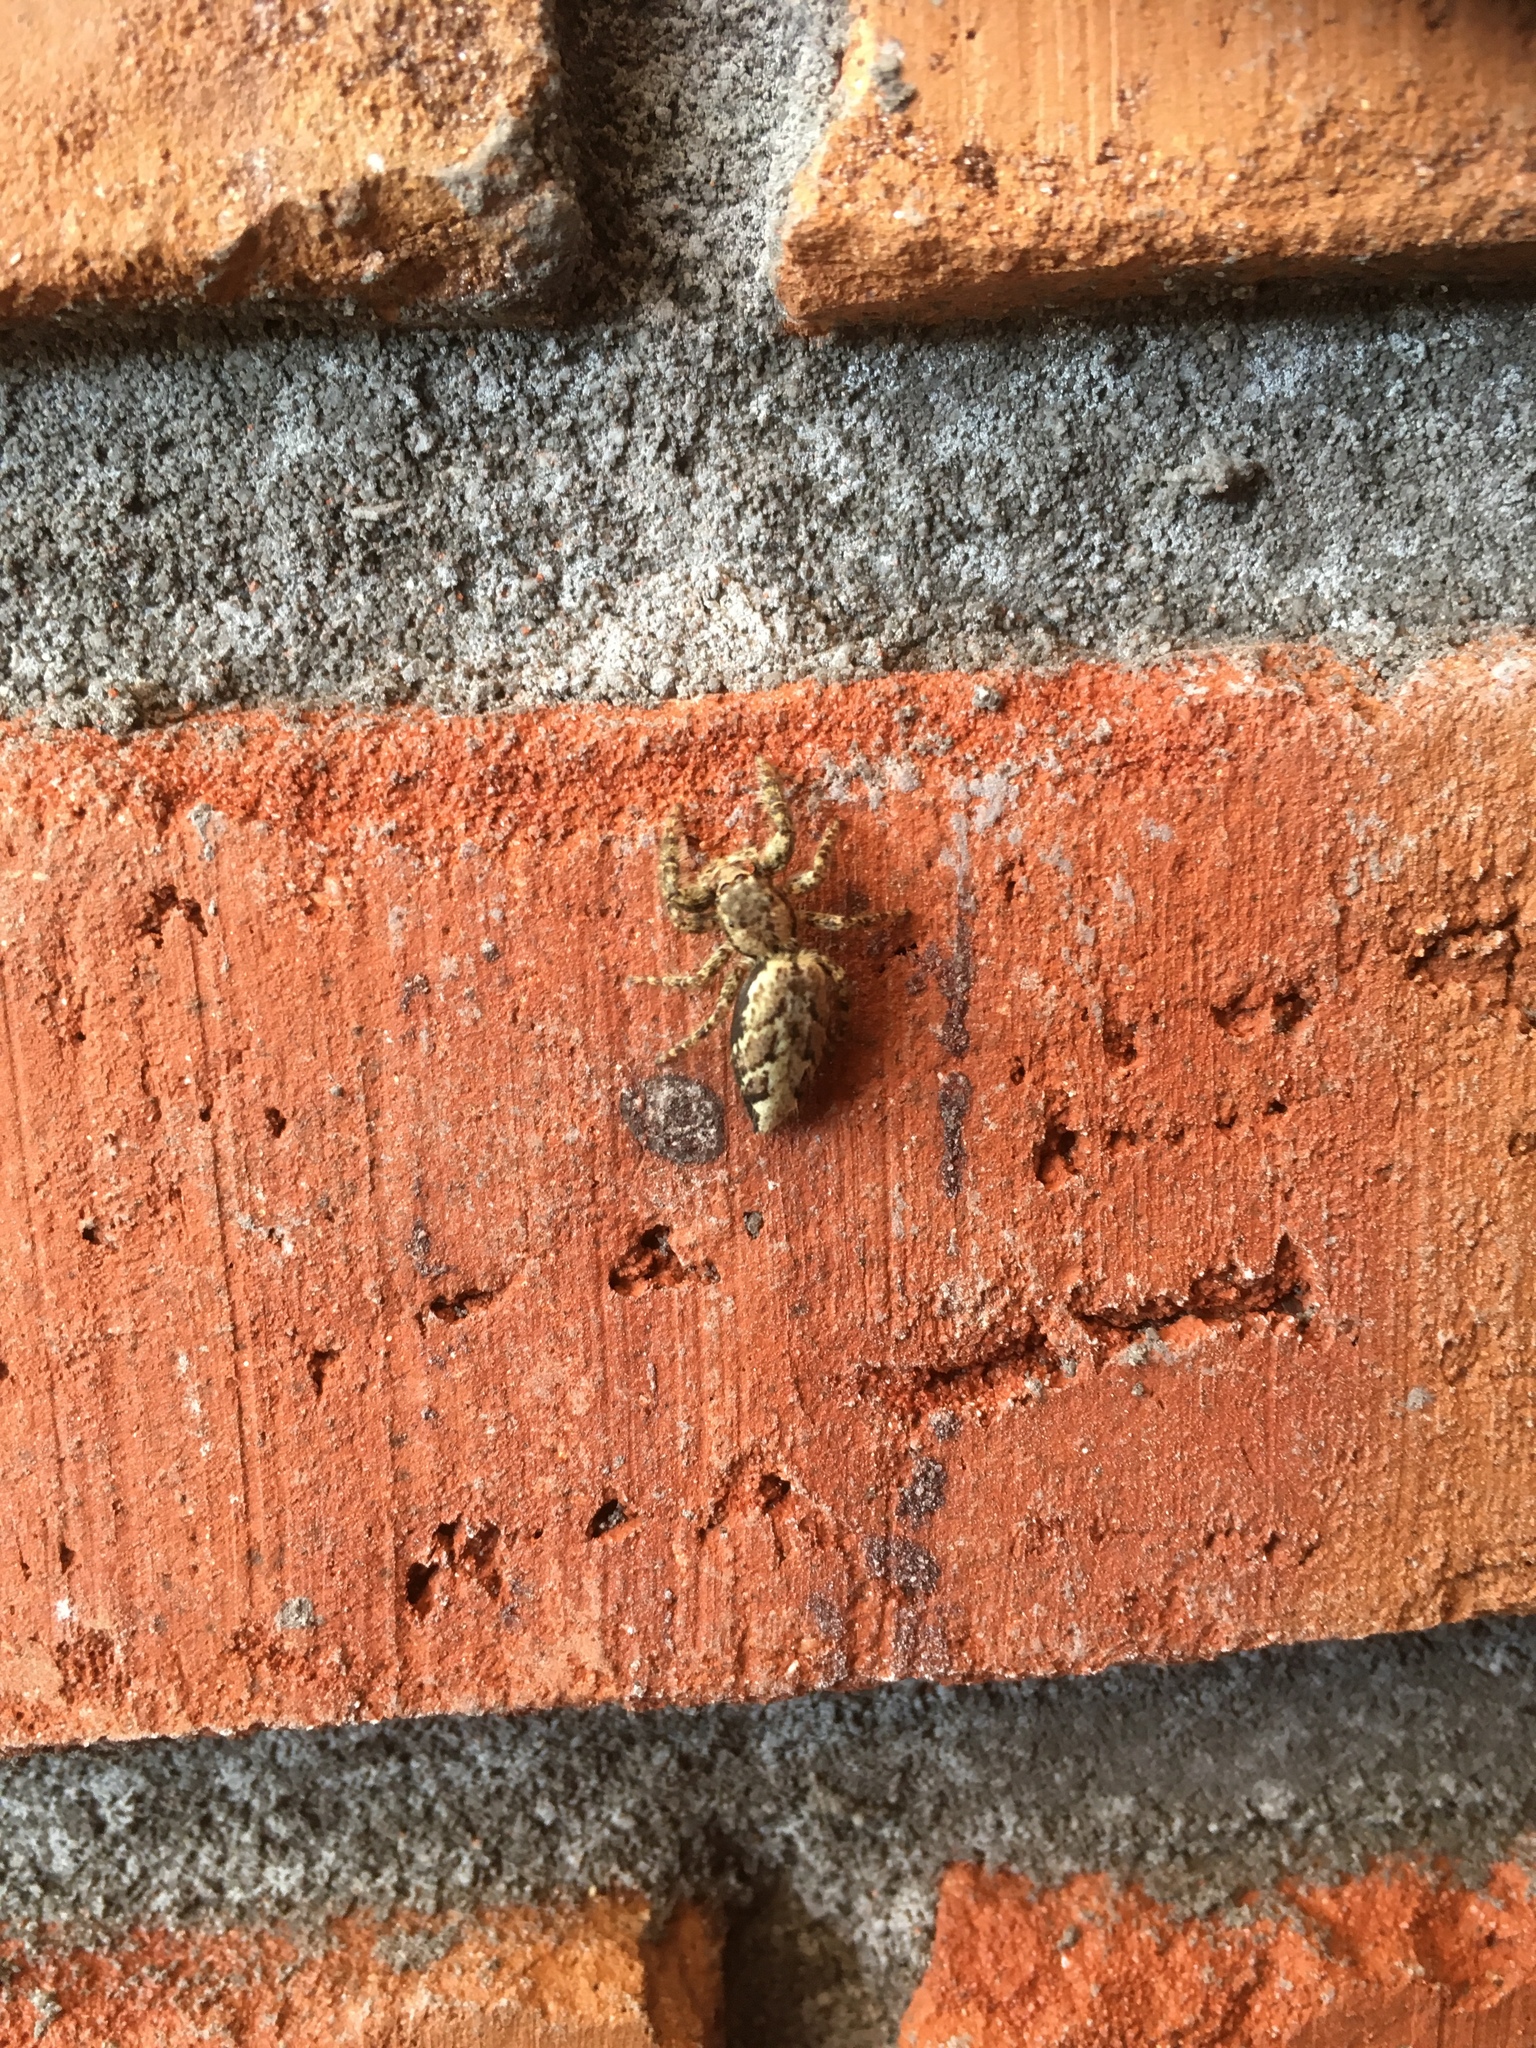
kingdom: Animalia
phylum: Arthropoda
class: Arachnida
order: Araneae
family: Salticidae
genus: Marpissa
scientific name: Marpissa muscosa
